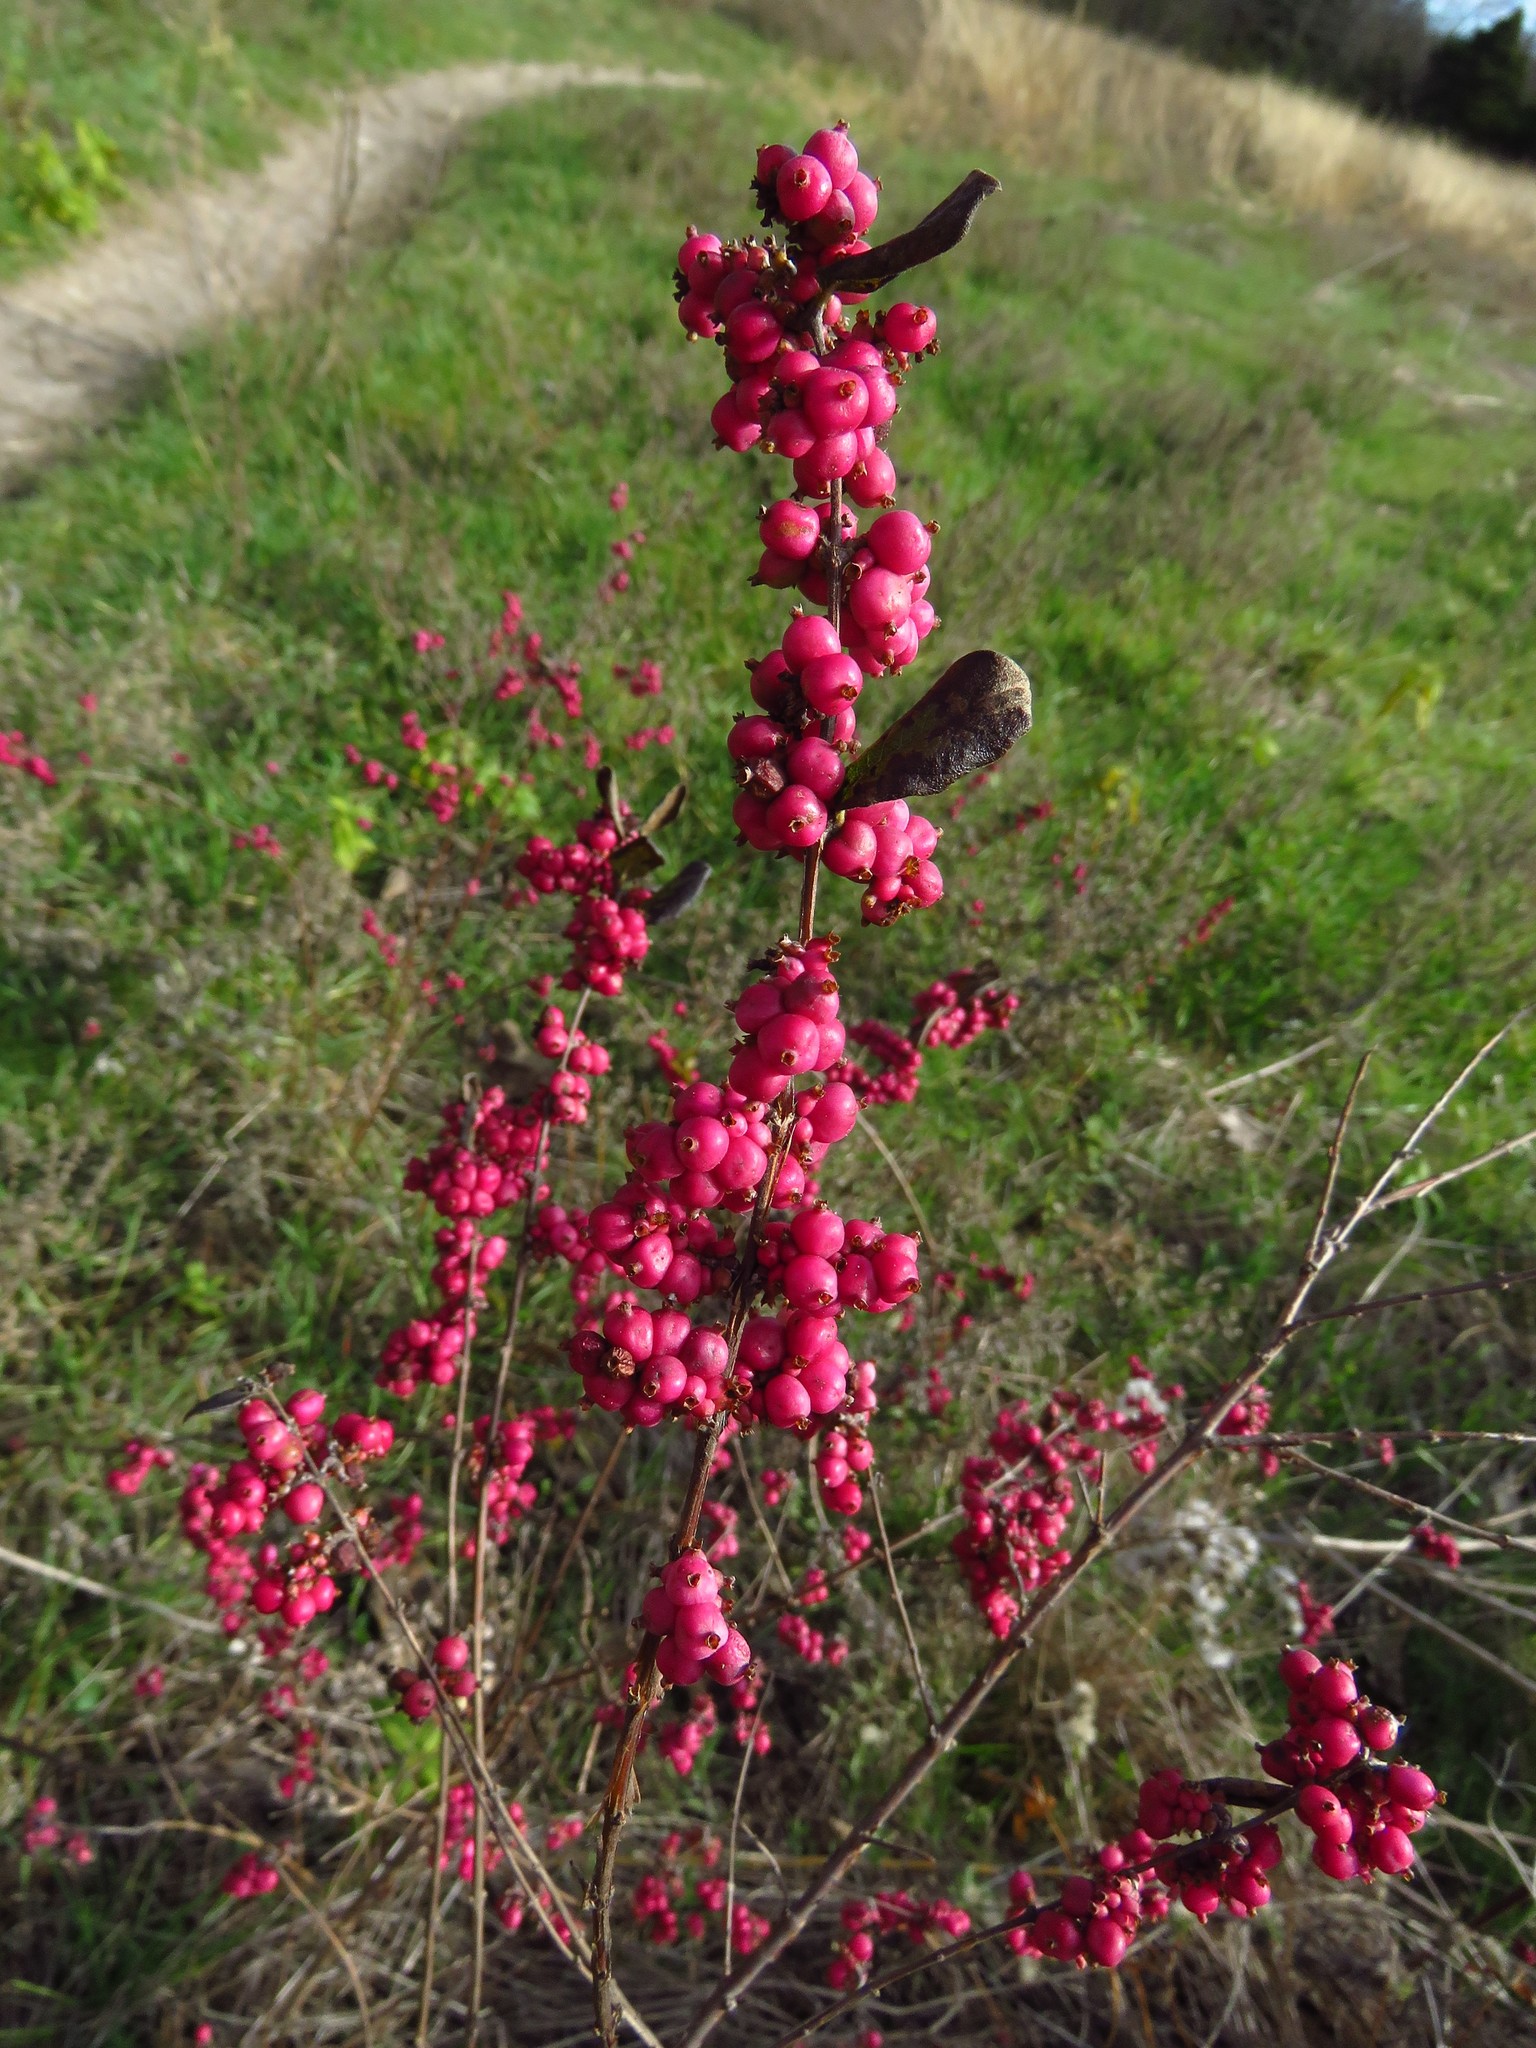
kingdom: Plantae
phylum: Tracheophyta
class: Magnoliopsida
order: Dipsacales
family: Caprifoliaceae
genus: Symphoricarpos
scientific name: Symphoricarpos orbiculatus
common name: Coralberry
